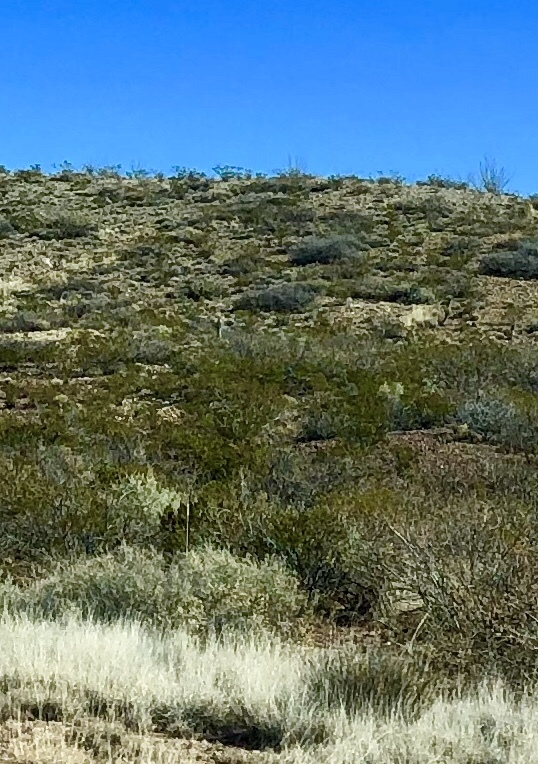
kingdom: Plantae
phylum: Tracheophyta
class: Magnoliopsida
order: Zygophyllales
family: Zygophyllaceae
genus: Larrea
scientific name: Larrea tridentata
